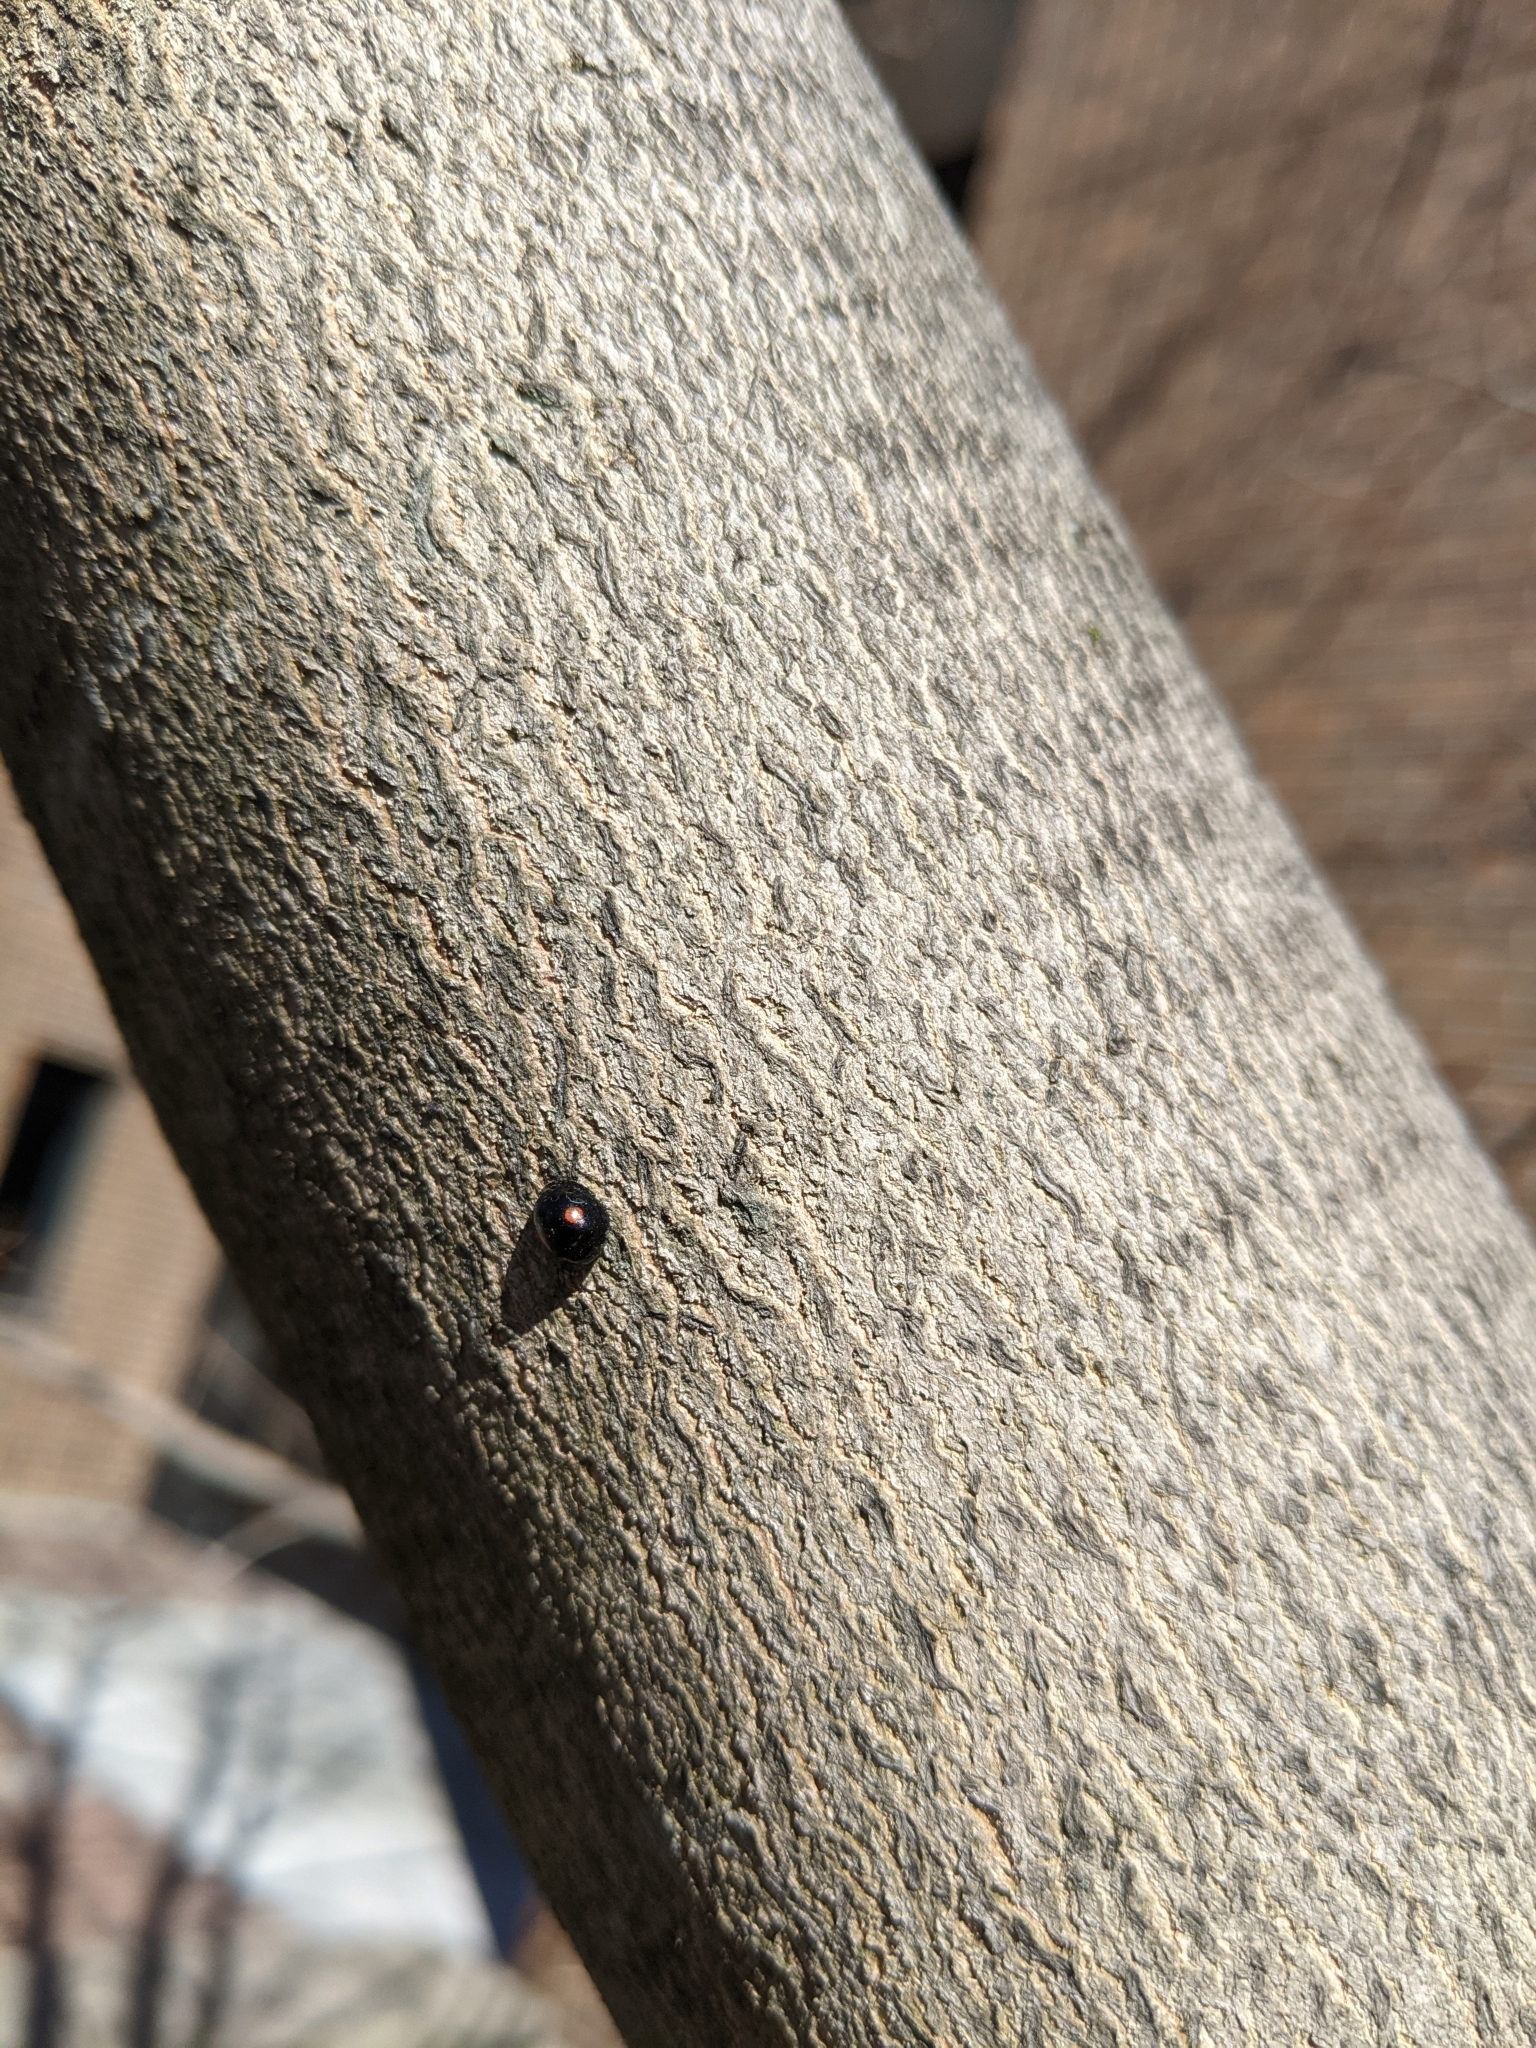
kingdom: Animalia
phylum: Arthropoda
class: Insecta
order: Coleoptera
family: Coccinellidae
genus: Chilocorus
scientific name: Chilocorus stigma
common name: Twicestabbed lady beetle
